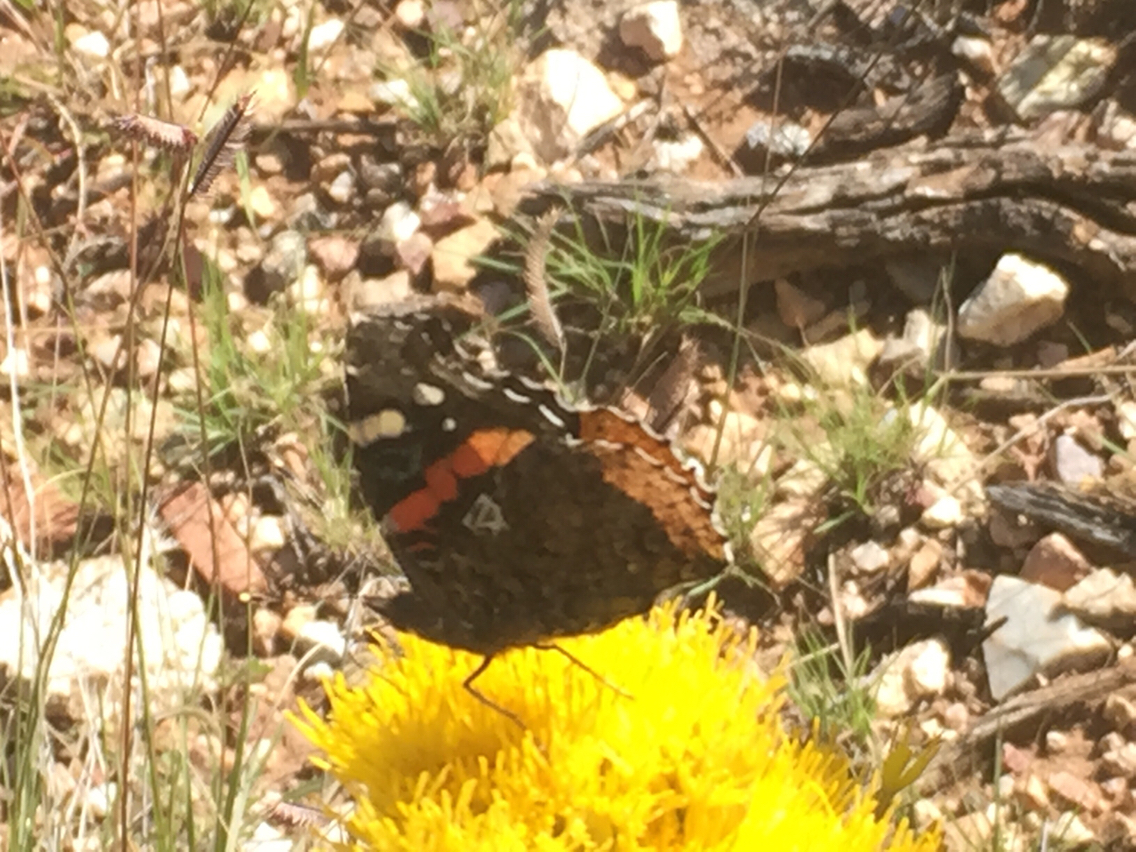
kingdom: Animalia
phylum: Arthropoda
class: Insecta
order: Lepidoptera
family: Nymphalidae
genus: Vanessa
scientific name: Vanessa atalanta
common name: Red admiral
